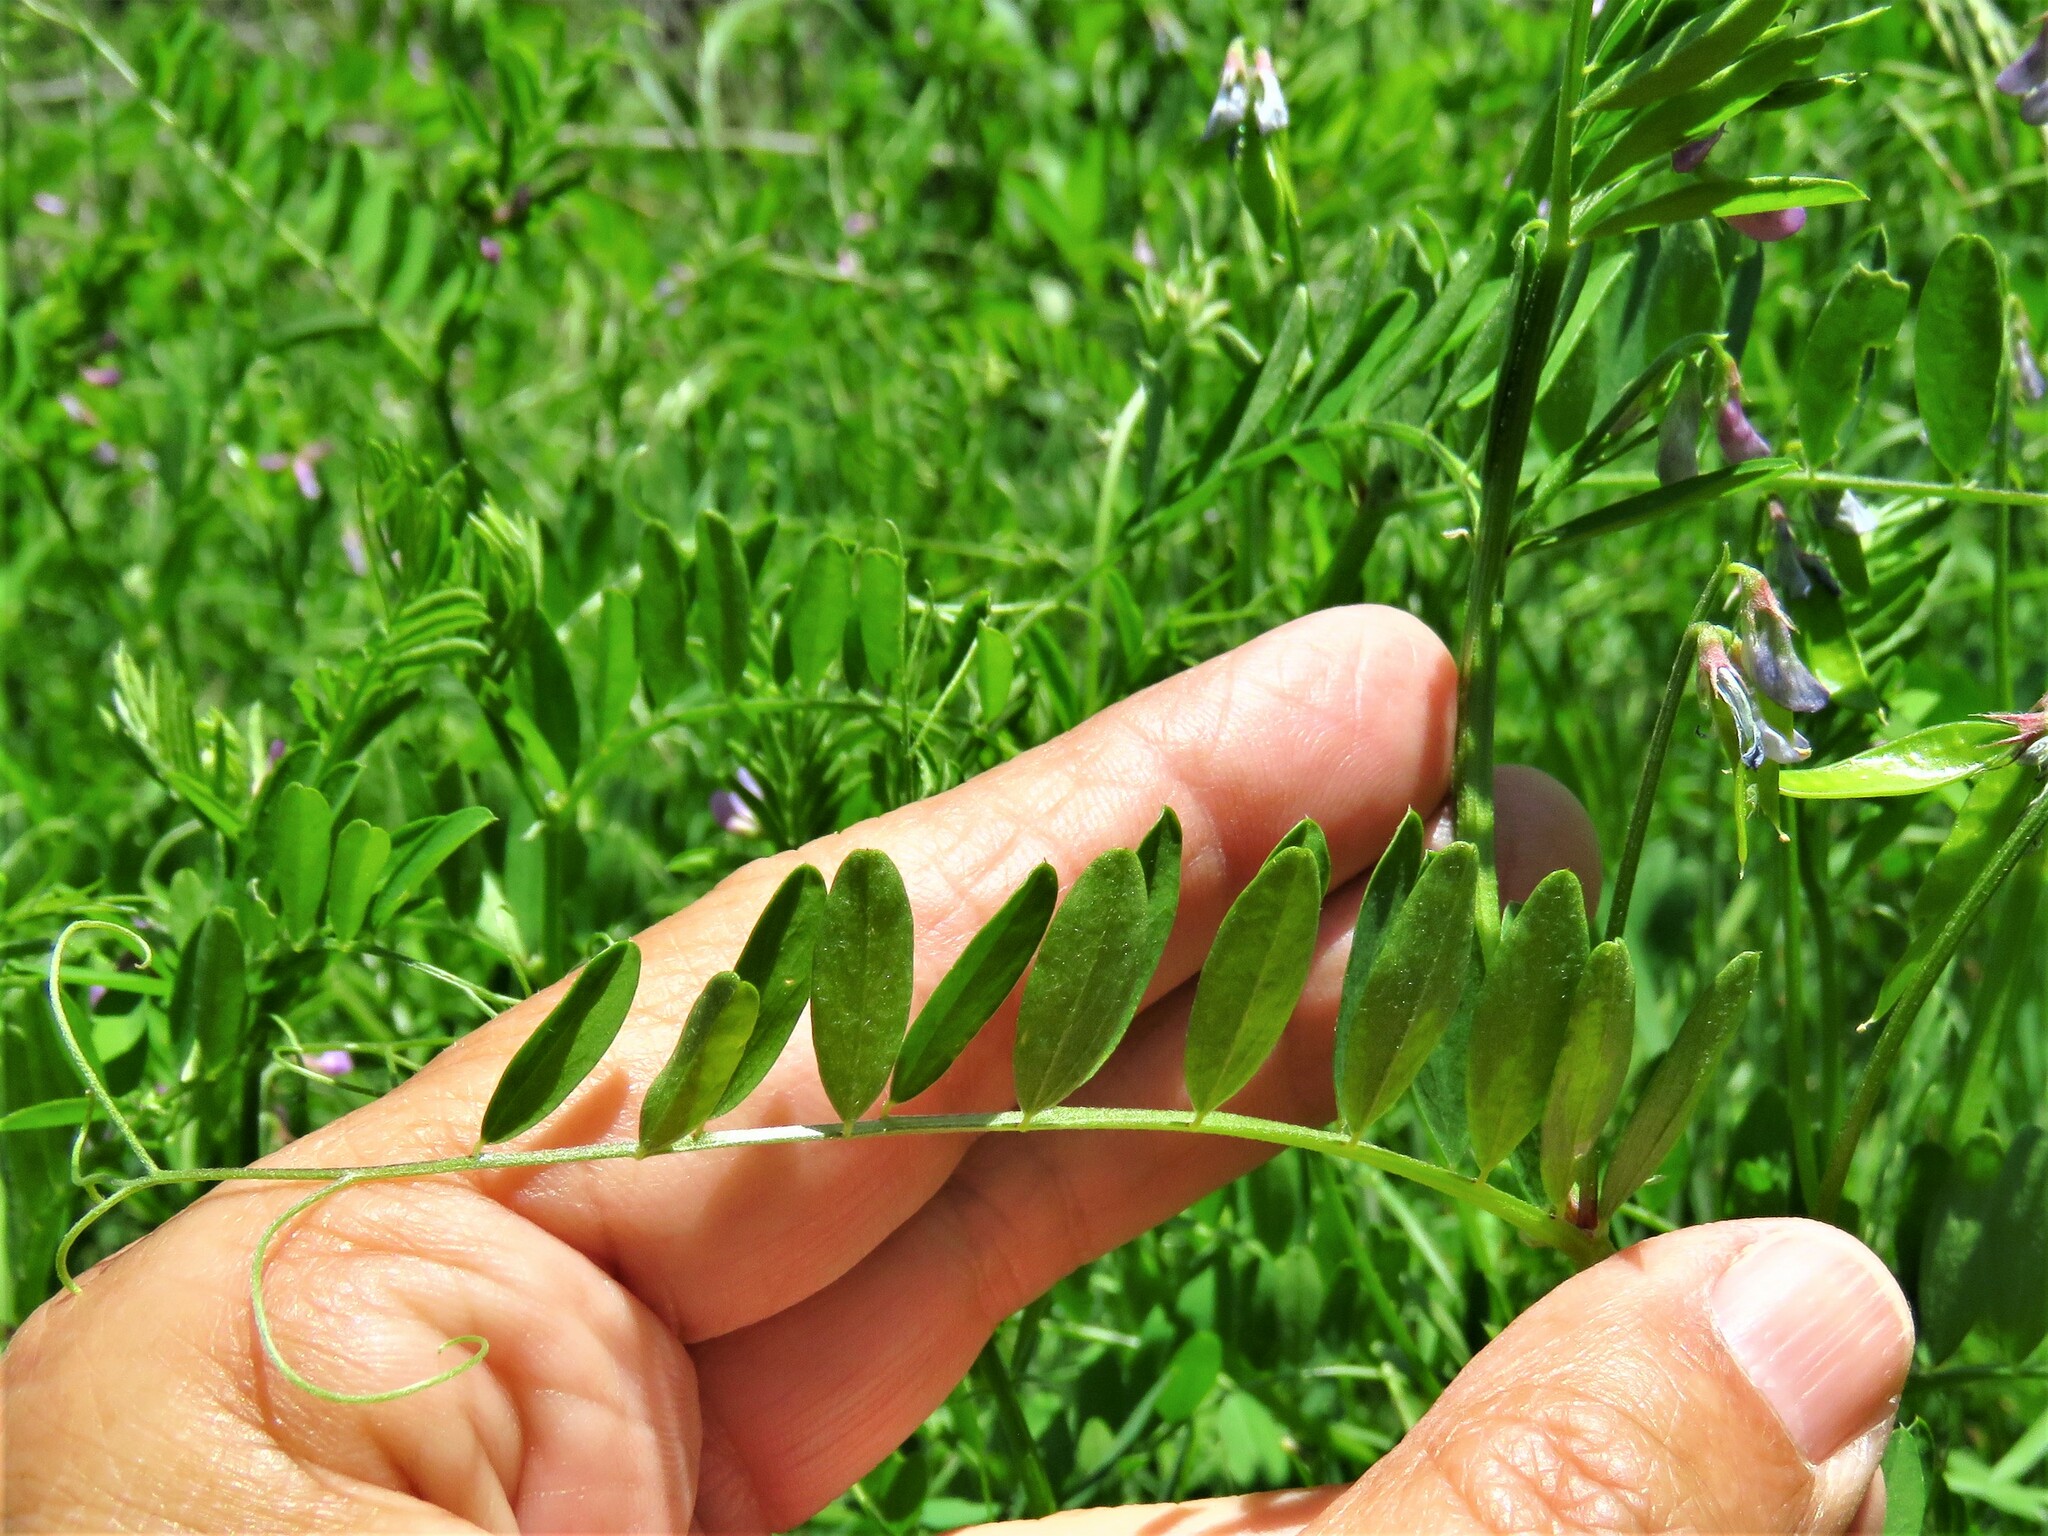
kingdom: Plantae
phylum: Tracheophyta
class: Magnoliopsida
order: Fabales
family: Fabaceae
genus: Vicia
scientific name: Vicia sativa
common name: Garden vetch
